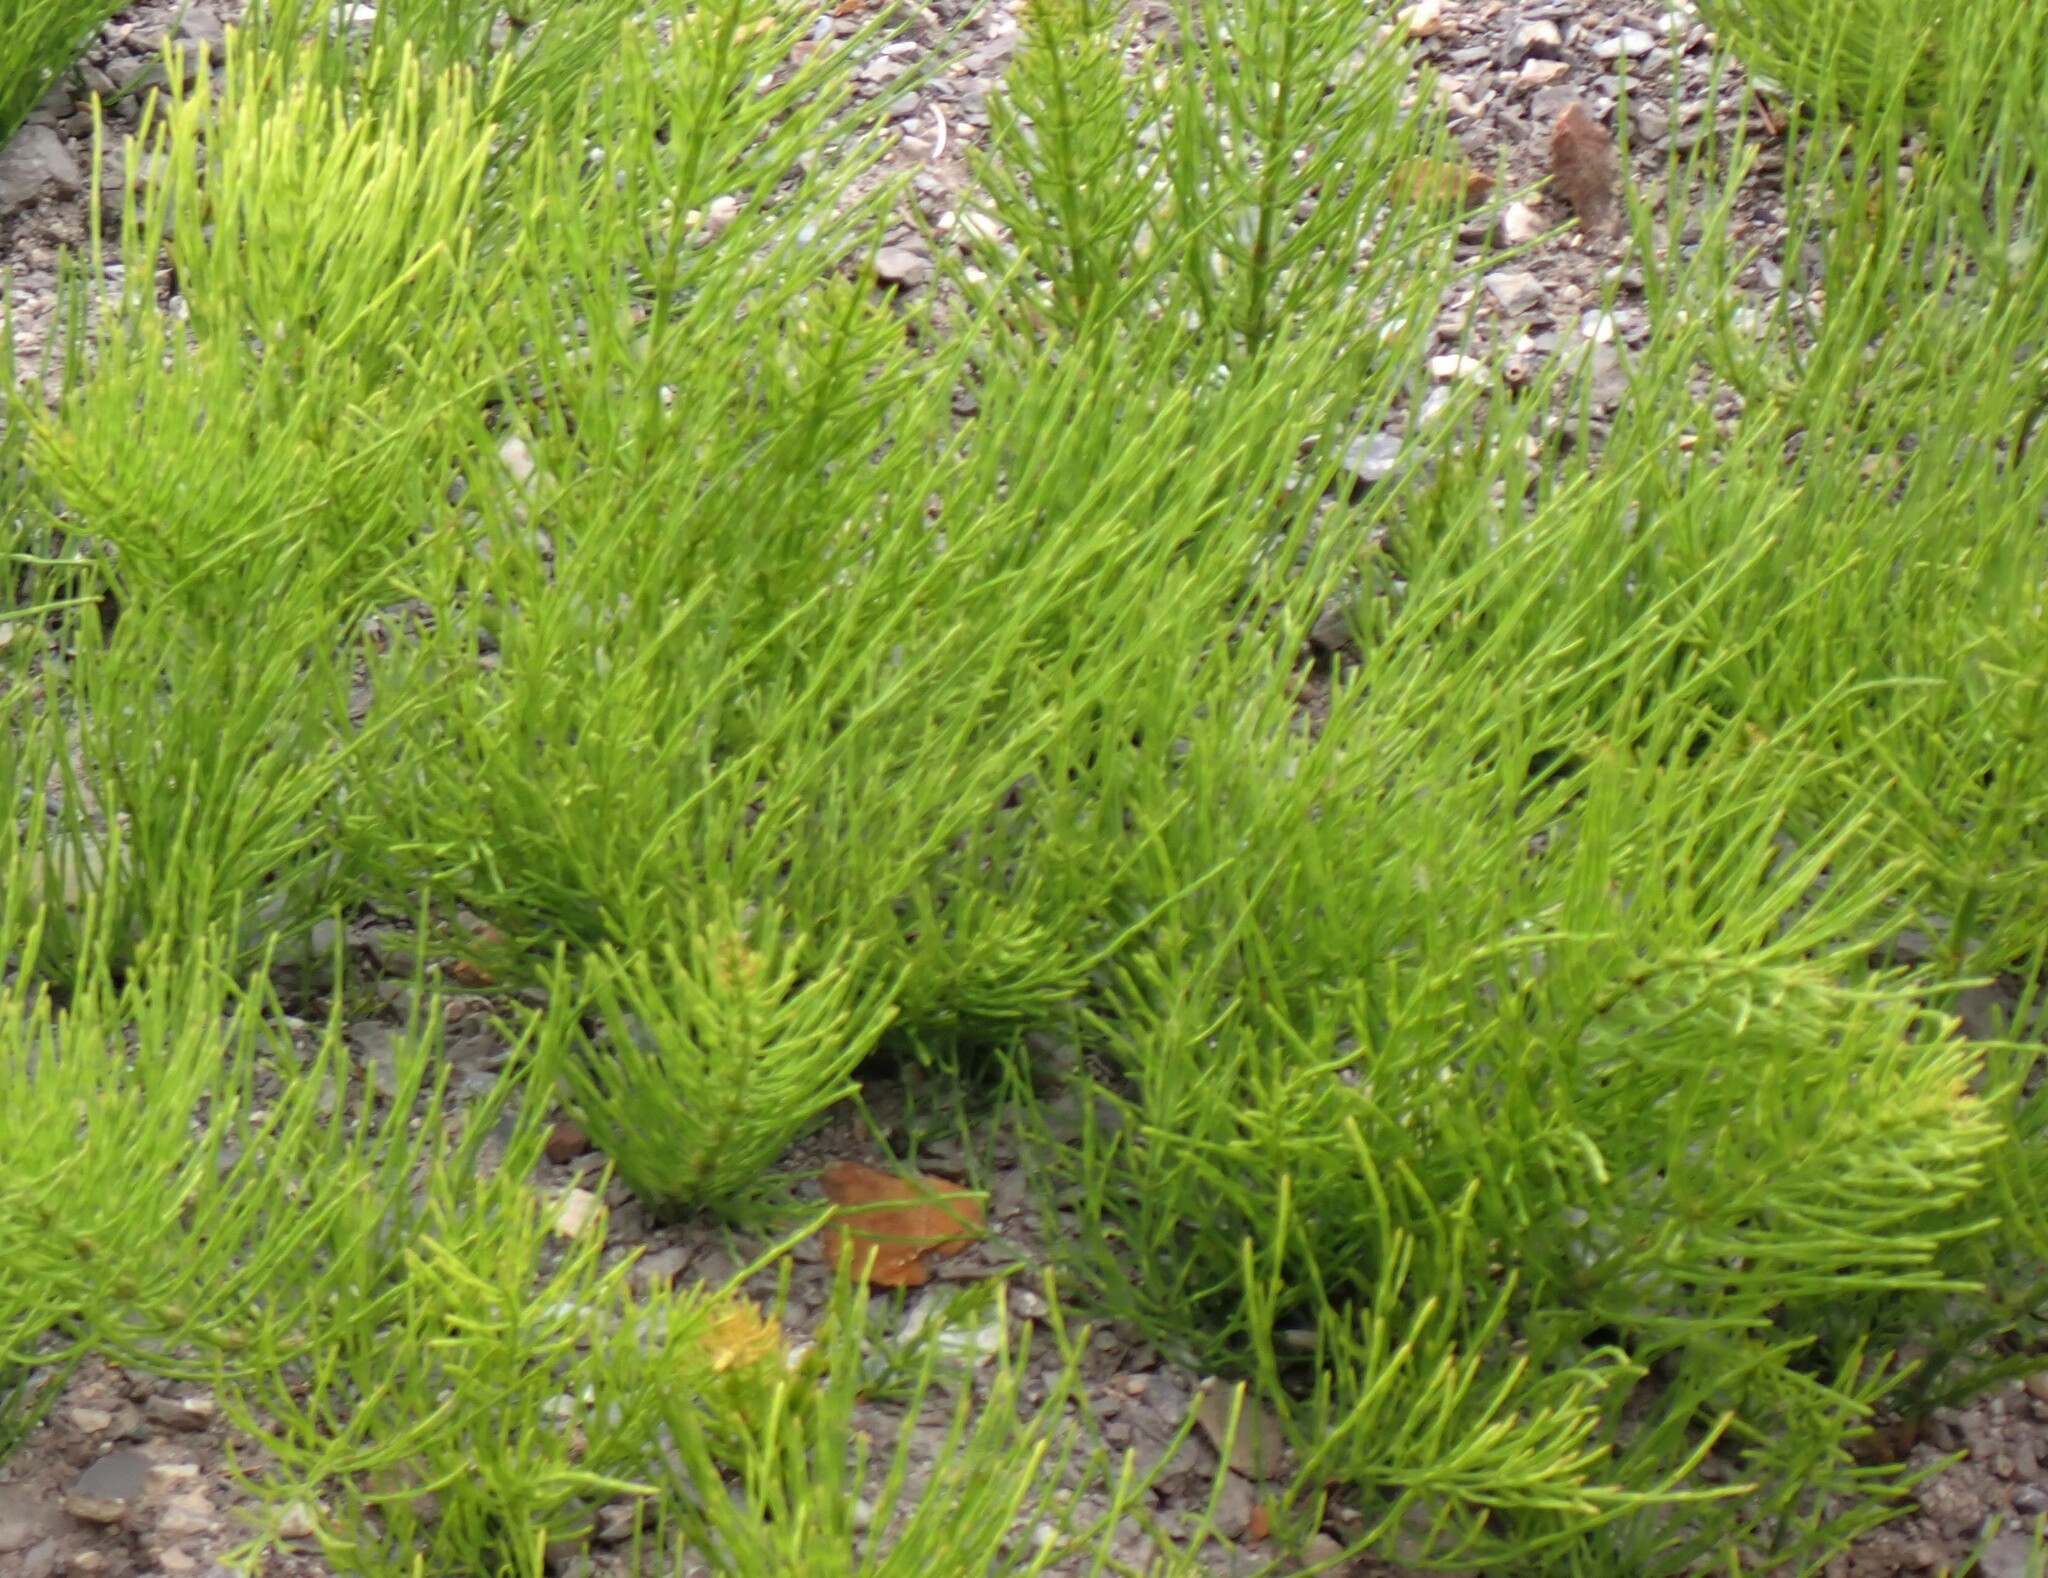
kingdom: Plantae
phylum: Tracheophyta
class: Polypodiopsida
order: Equisetales
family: Equisetaceae
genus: Equisetum
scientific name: Equisetum arvense
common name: Field horsetail
